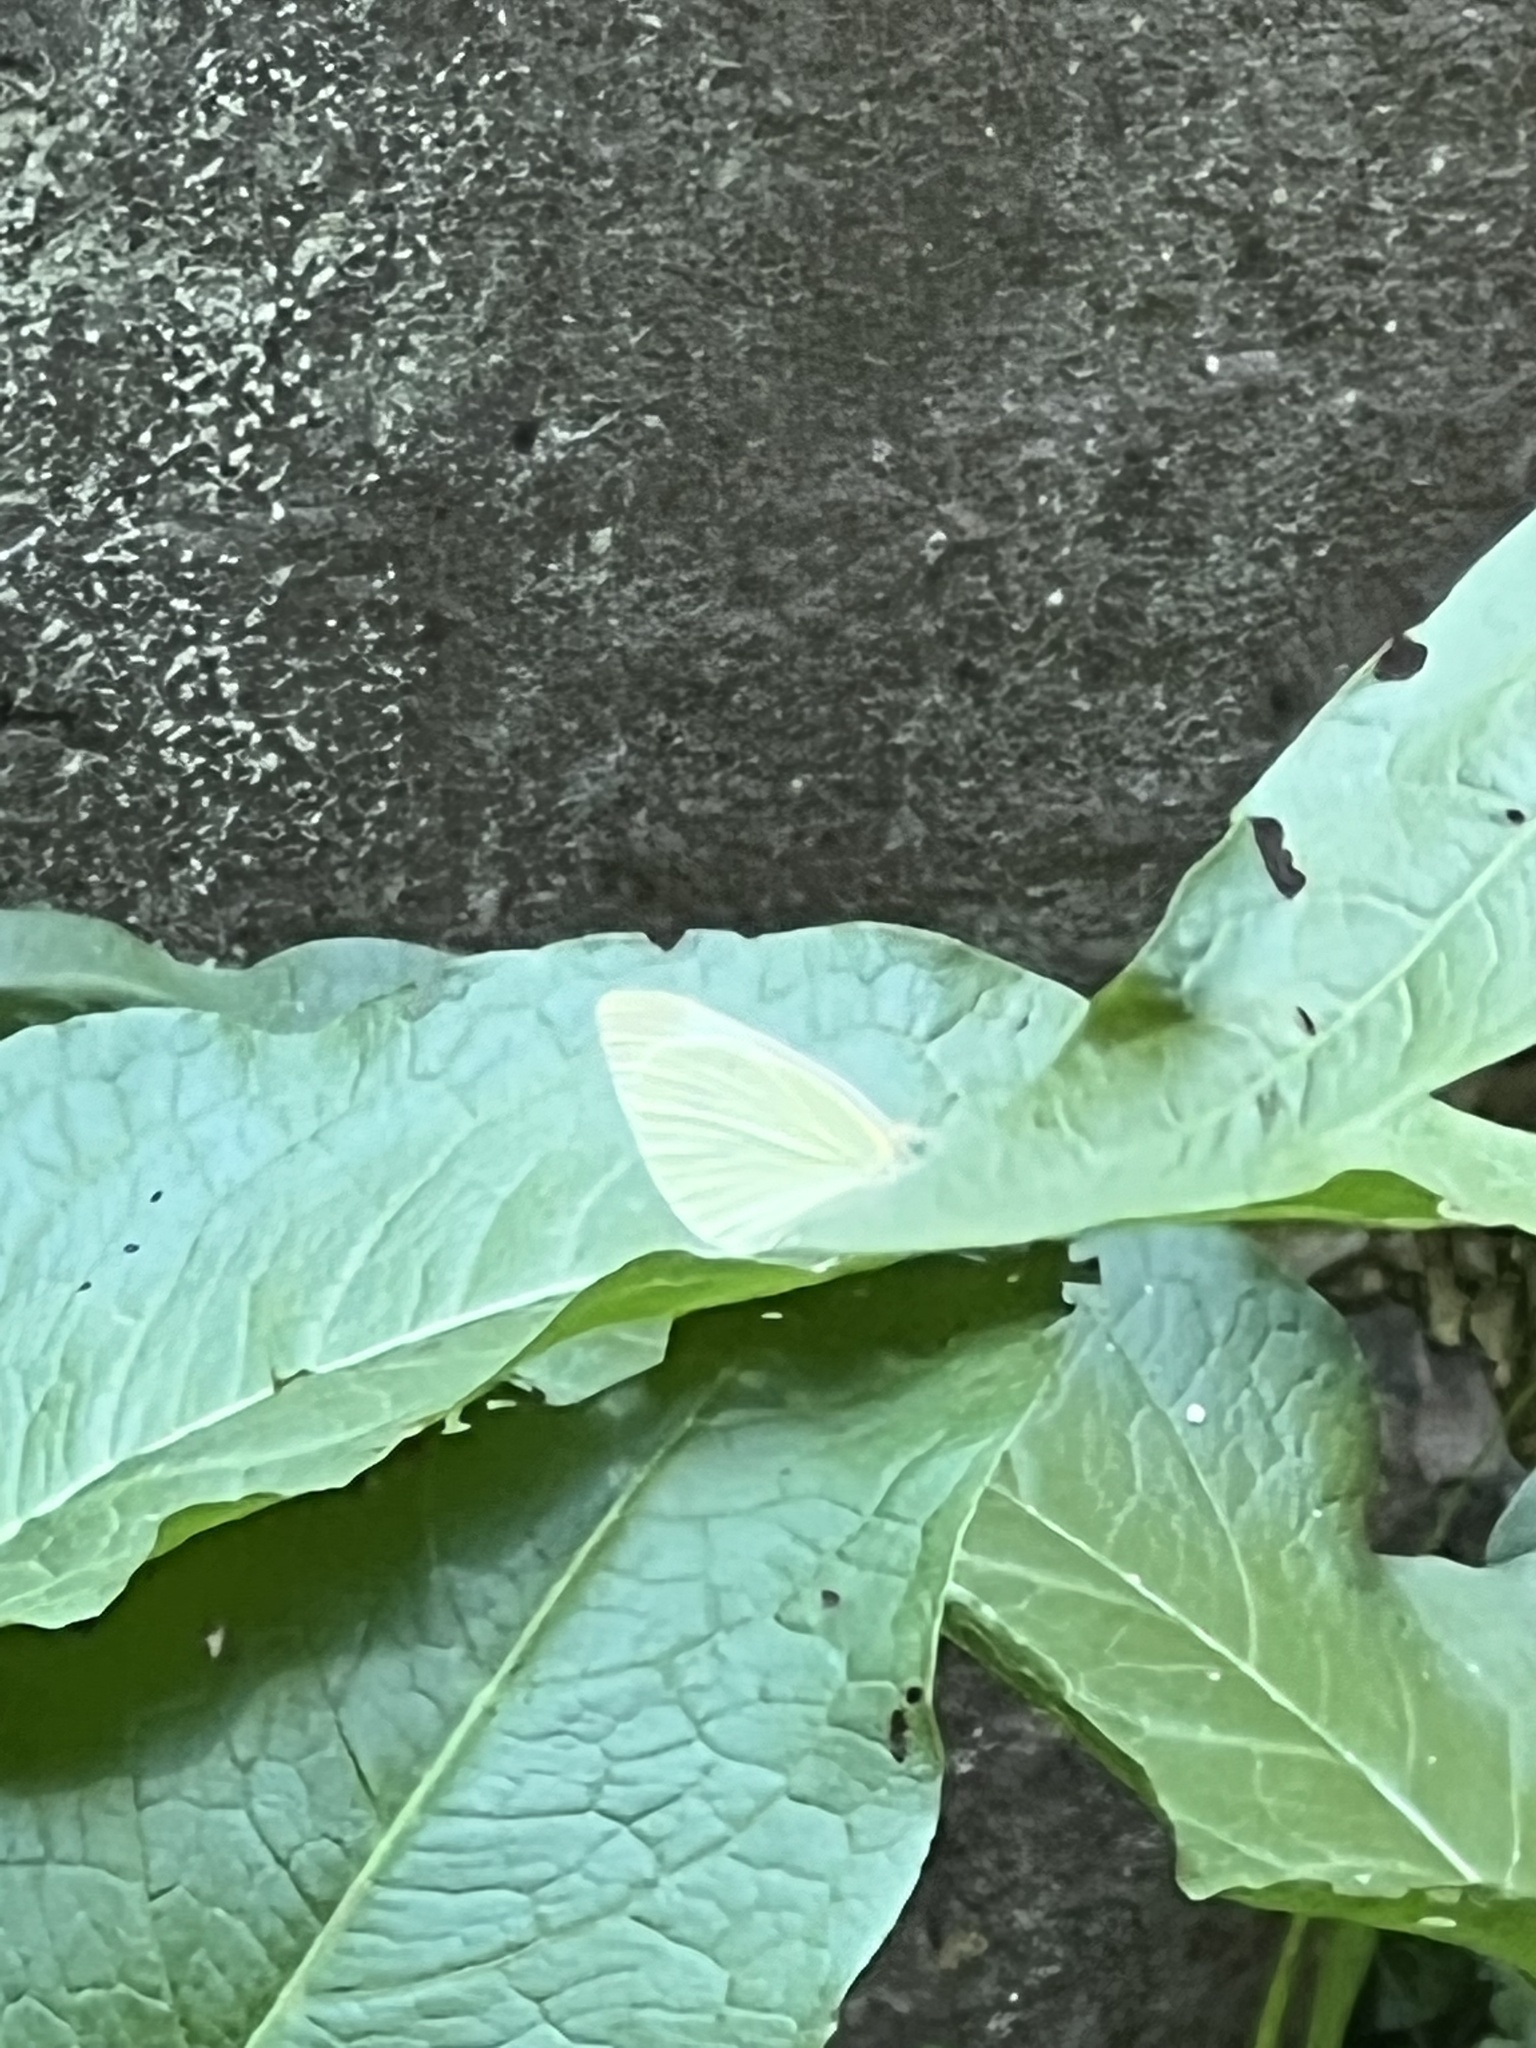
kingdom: Animalia
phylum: Arthropoda
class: Insecta
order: Lepidoptera
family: Pieridae
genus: Pieris
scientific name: Pieris rapae
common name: Small white
